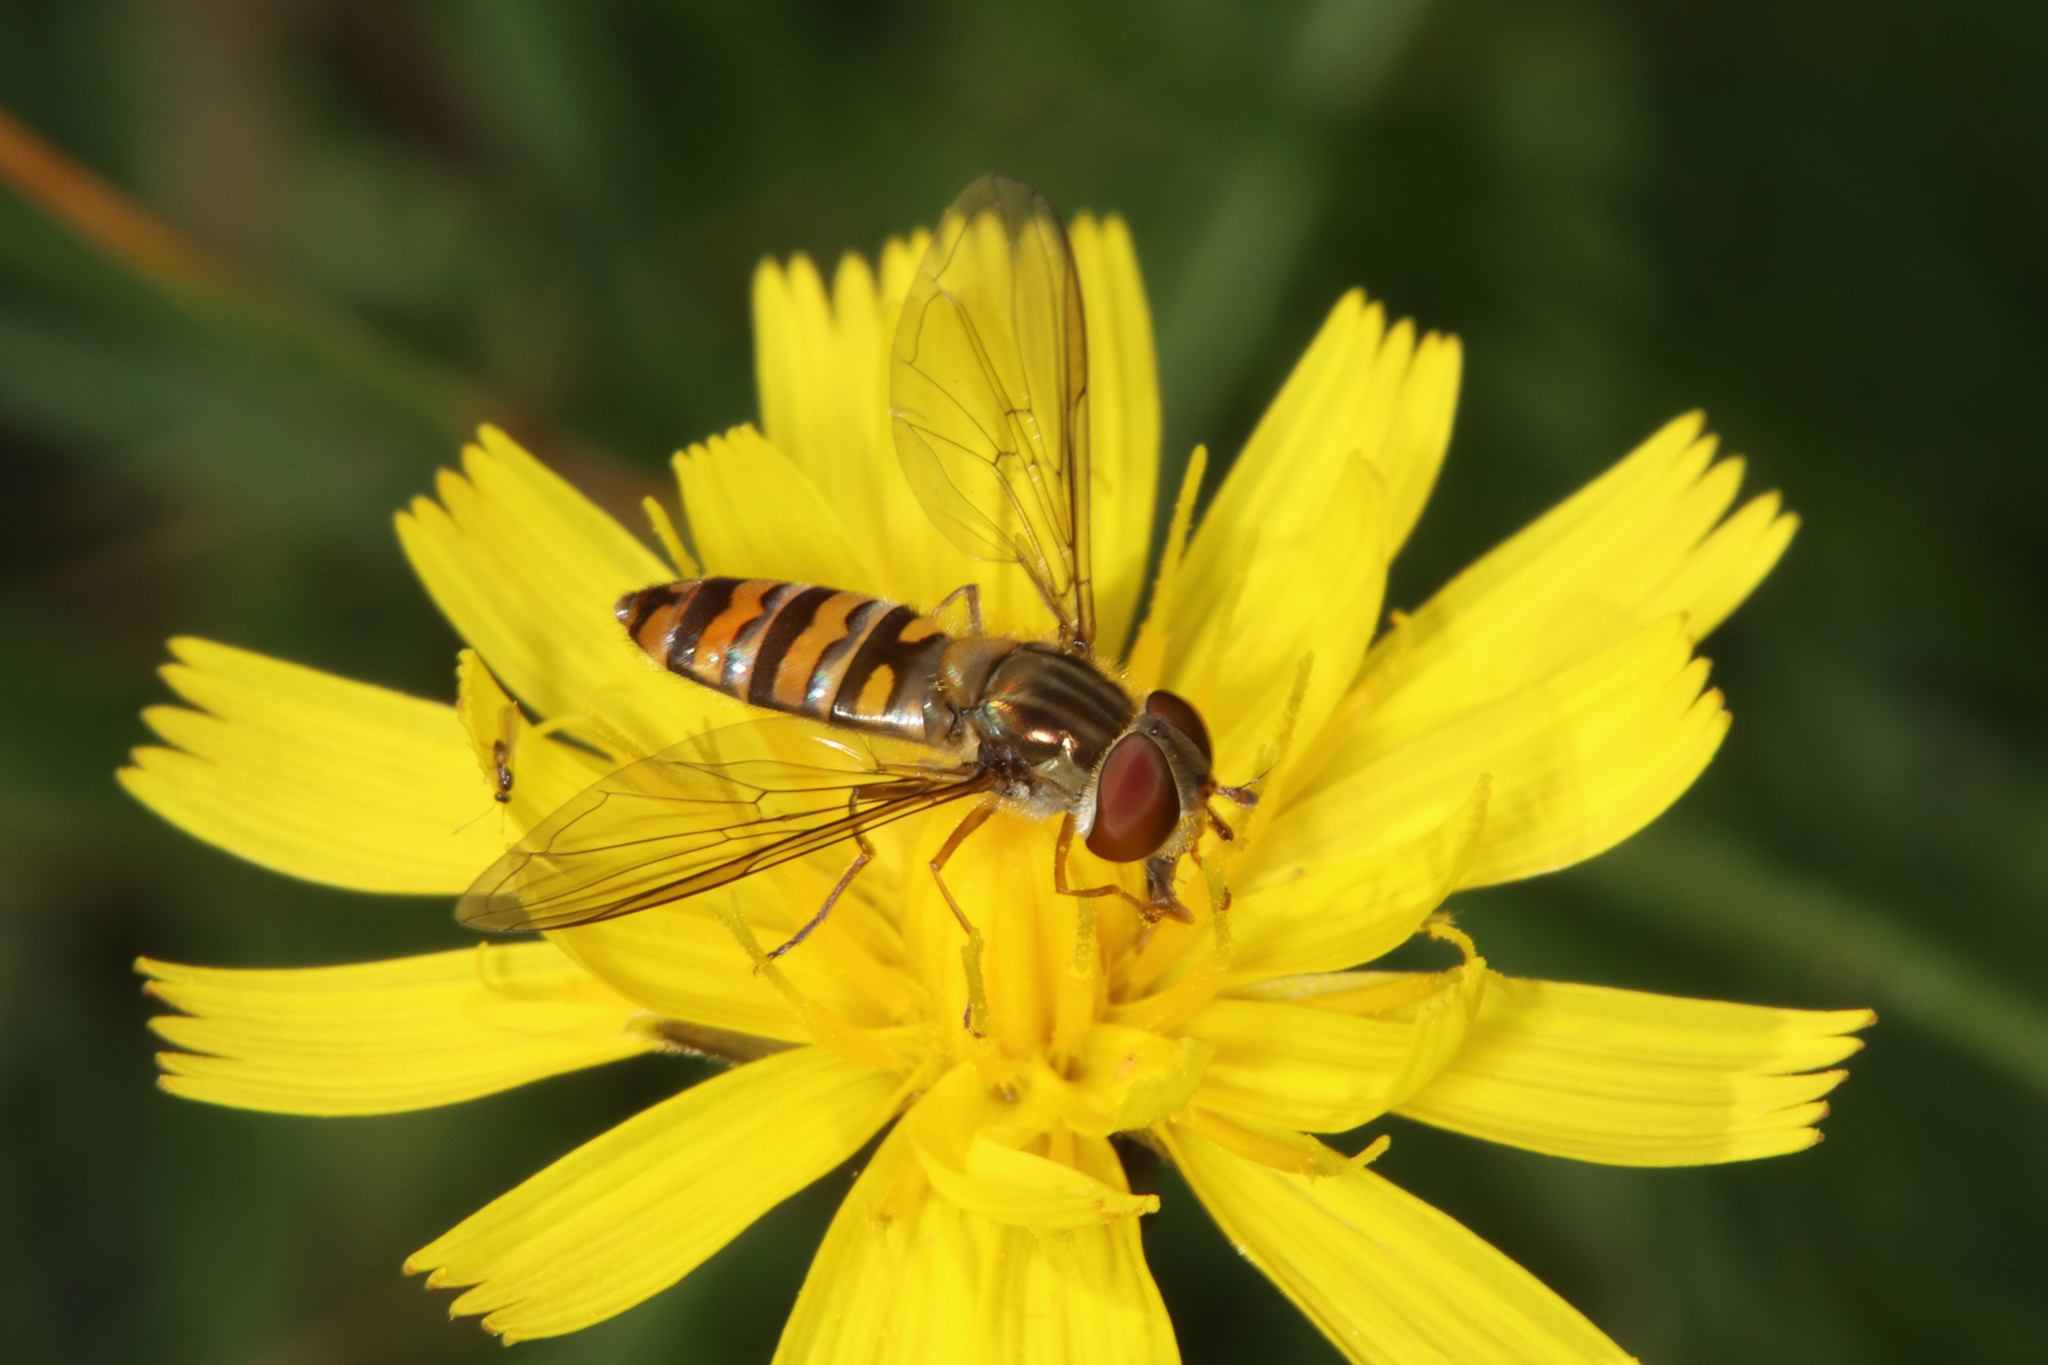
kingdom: Animalia
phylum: Arthropoda
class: Insecta
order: Diptera
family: Syrphidae
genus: Episyrphus
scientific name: Episyrphus balteatus
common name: Marmalade hoverfly
